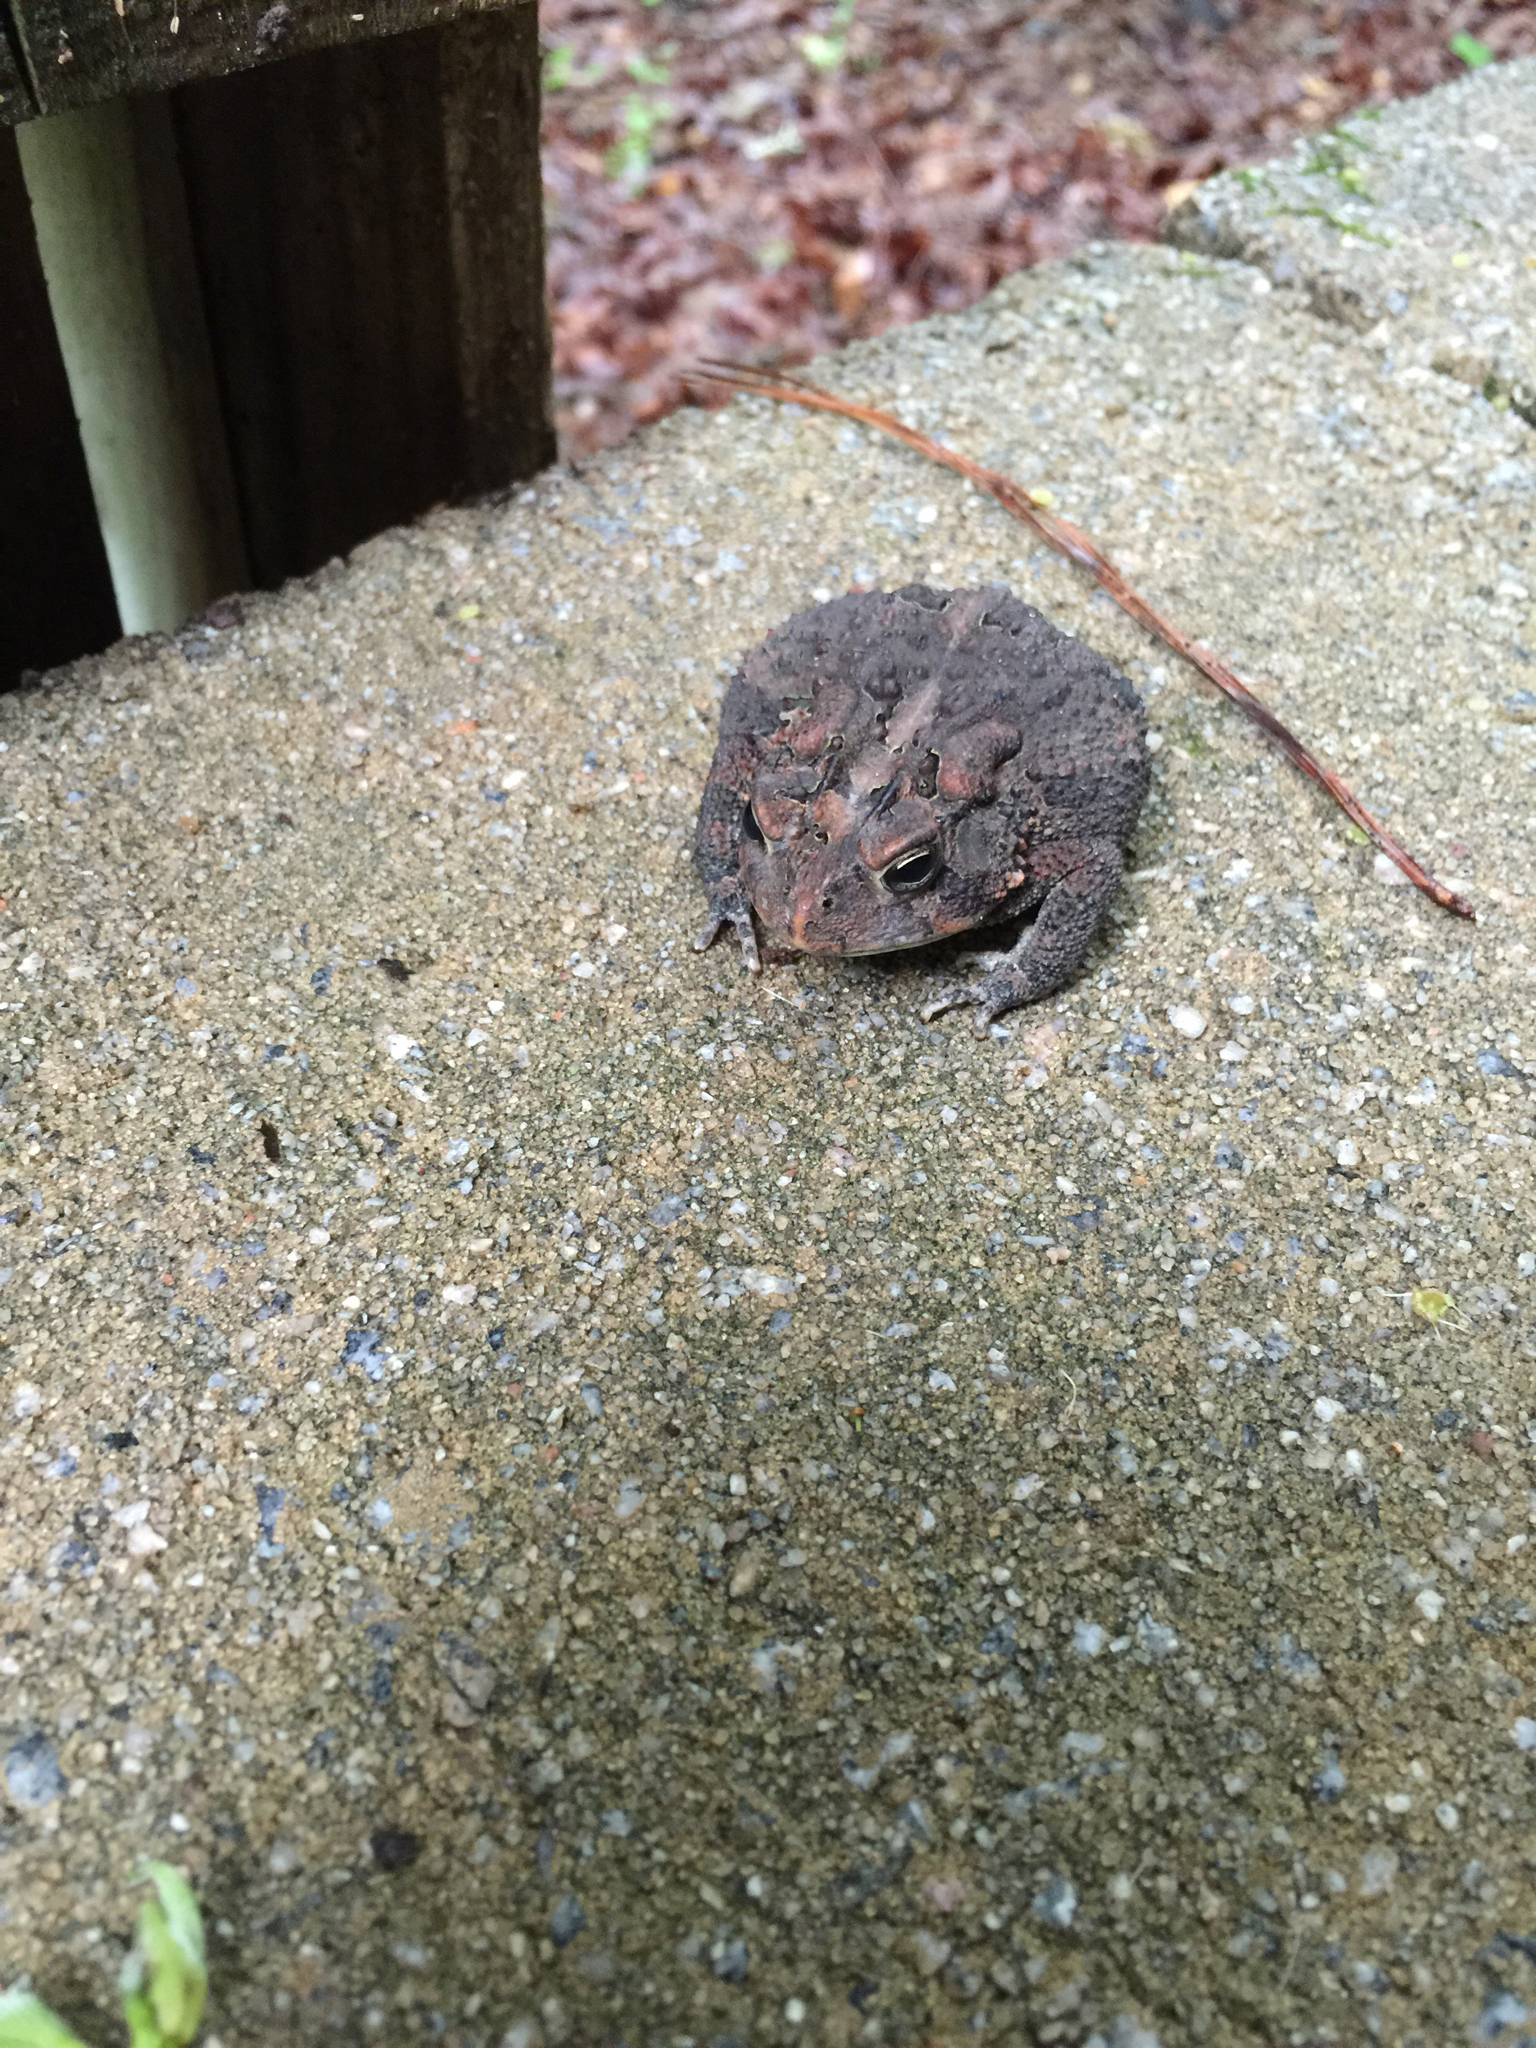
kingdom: Animalia
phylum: Chordata
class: Amphibia
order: Anura
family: Bufonidae
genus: Anaxyrus
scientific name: Anaxyrus terrestris
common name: Southern toad
